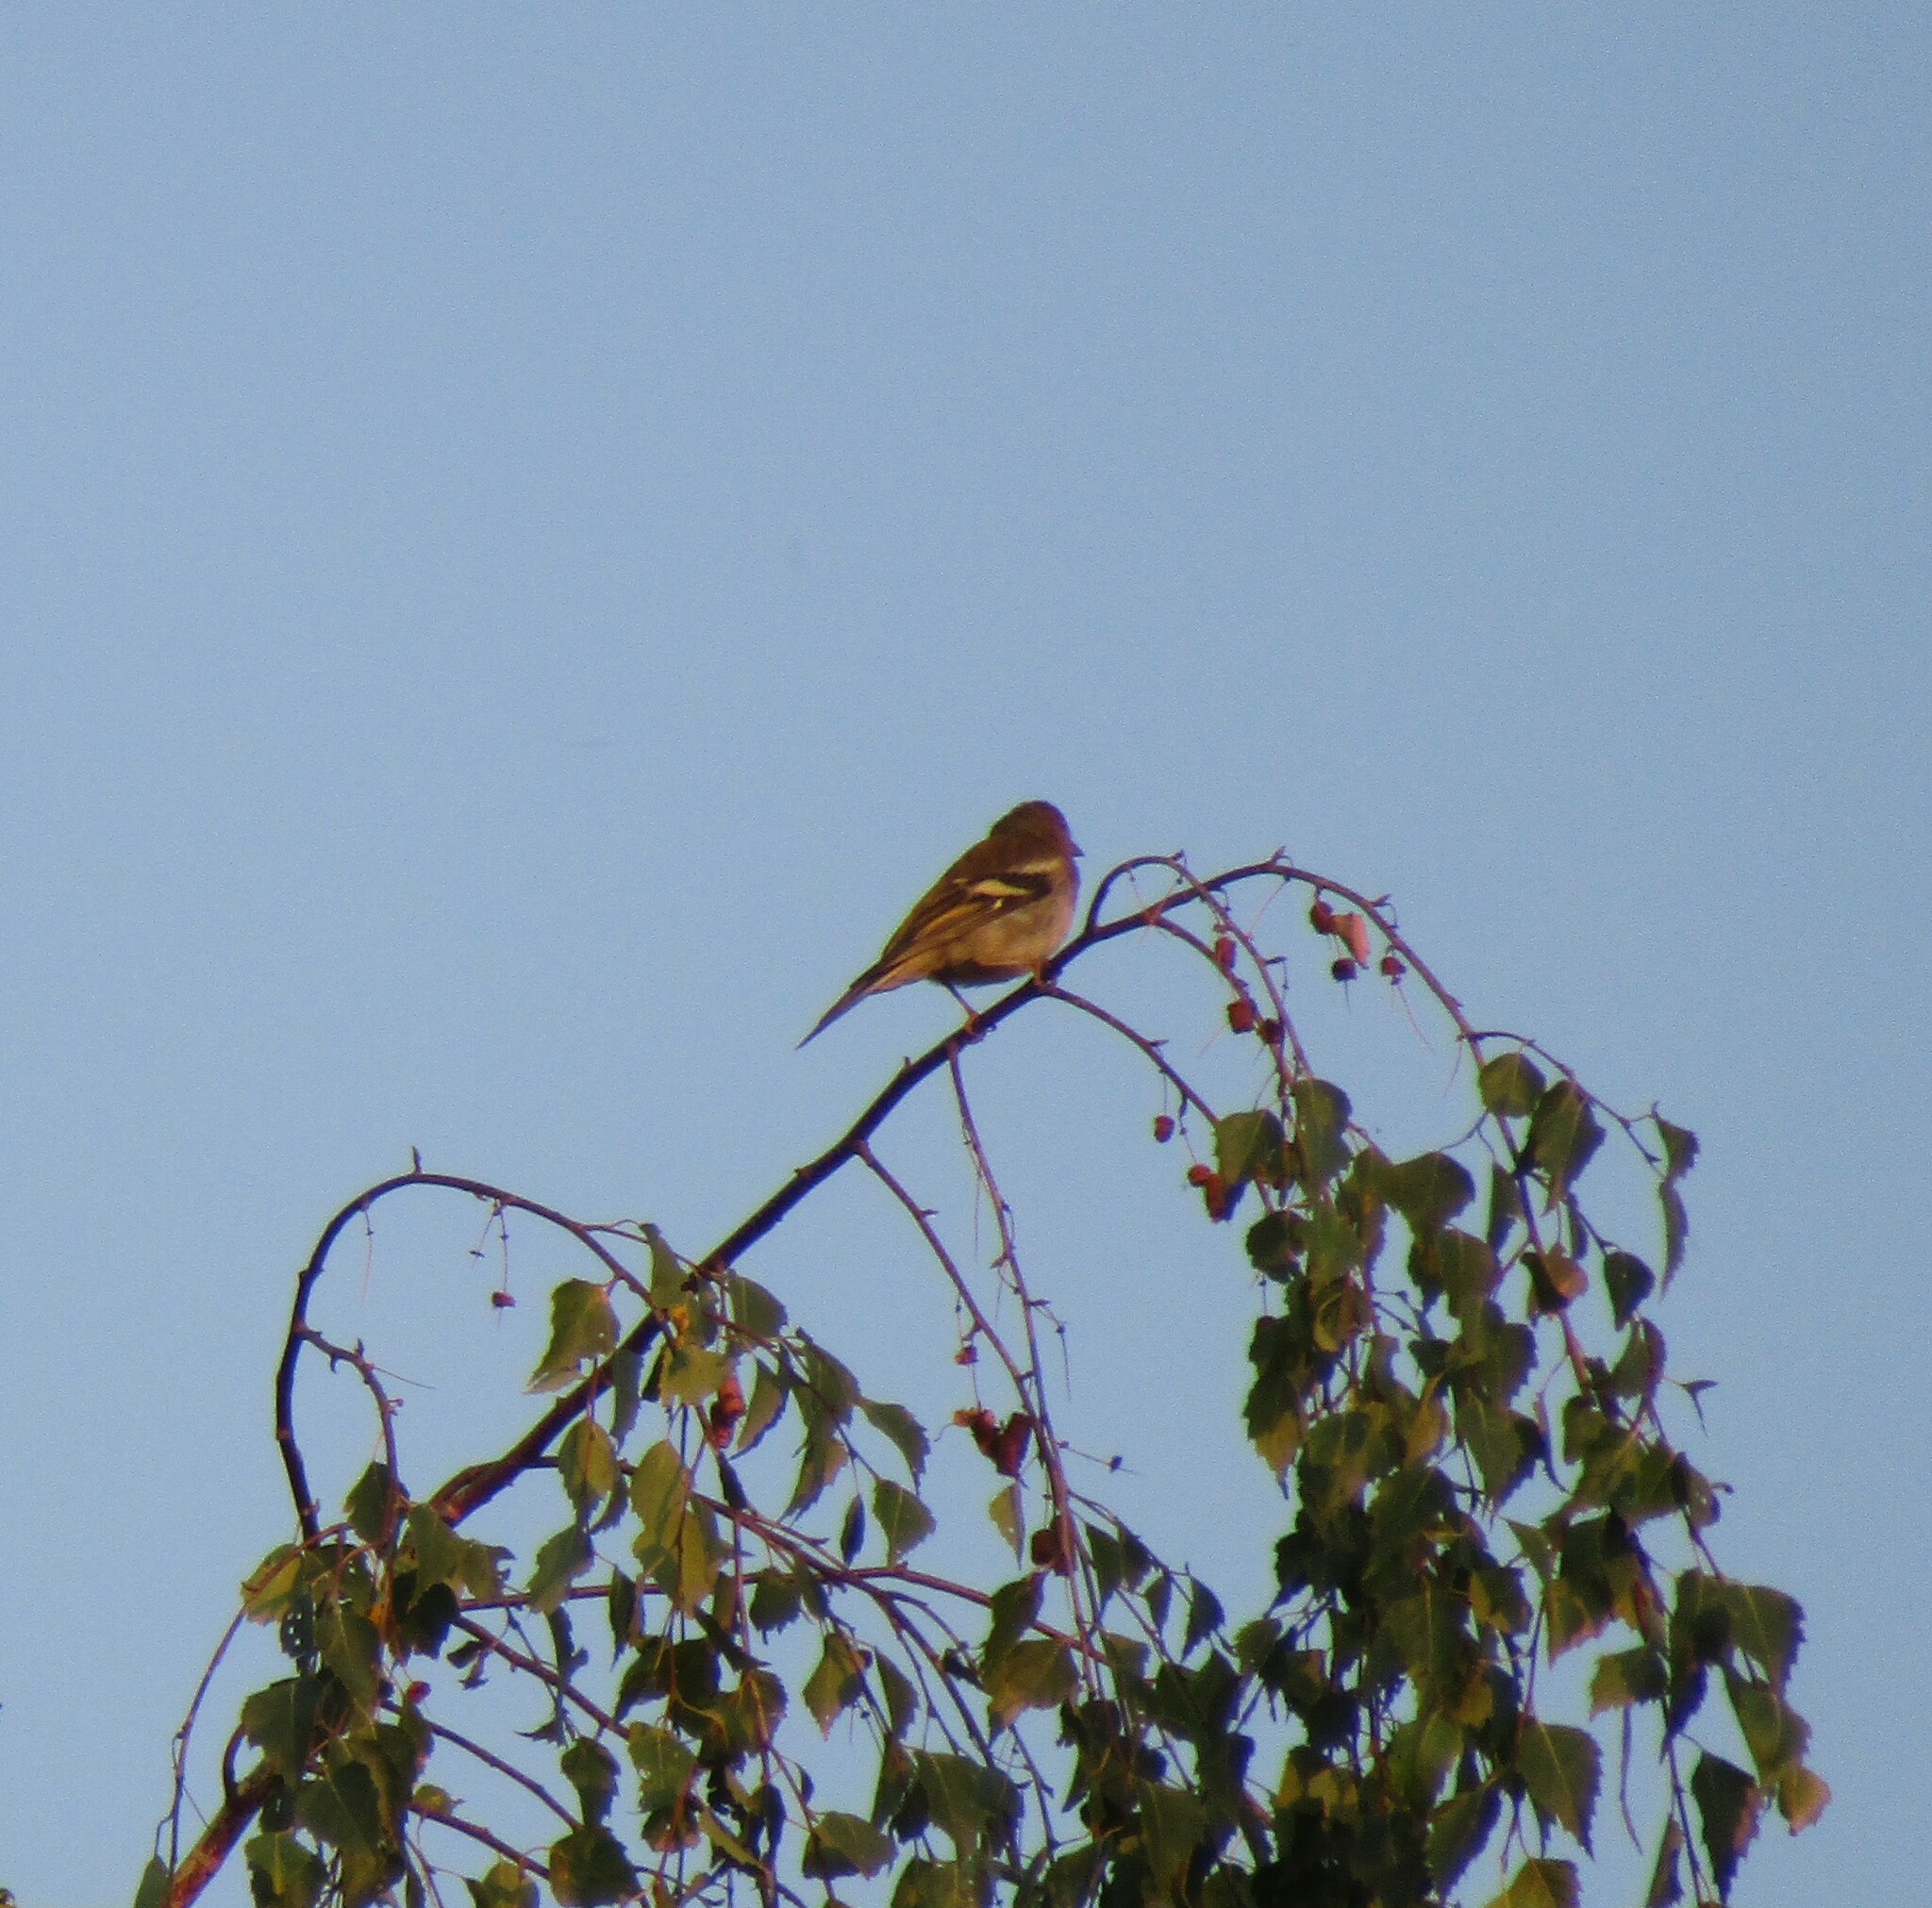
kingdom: Animalia
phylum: Chordata
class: Aves
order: Passeriformes
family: Fringillidae
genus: Fringilla
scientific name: Fringilla coelebs
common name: Common chaffinch
